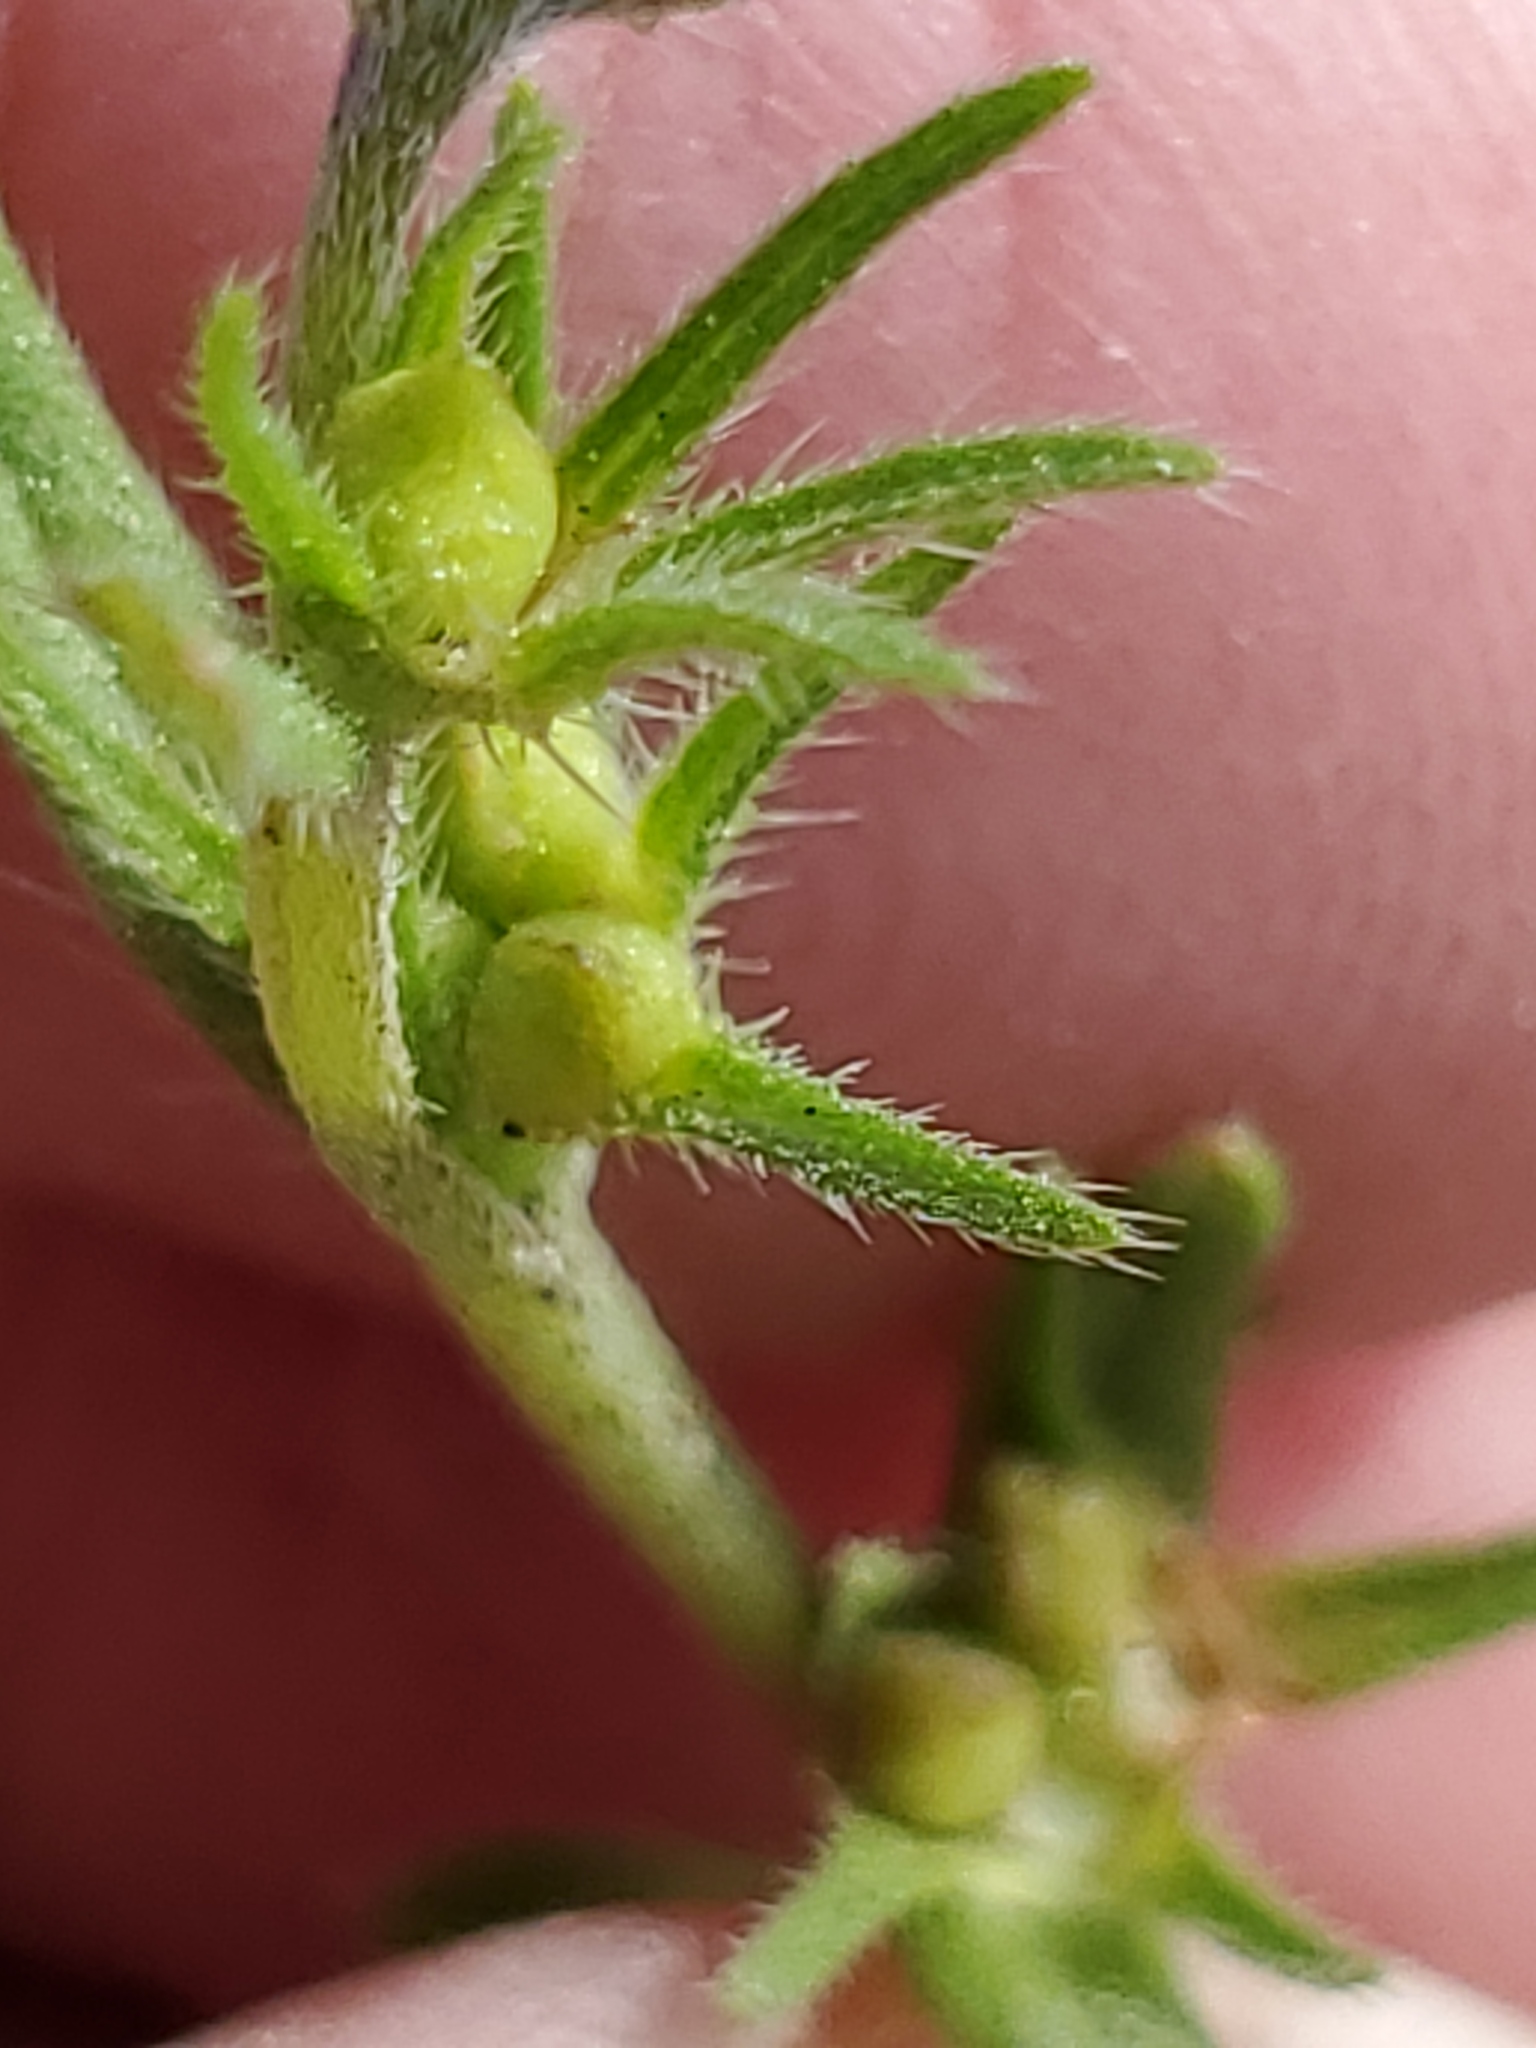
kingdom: Plantae
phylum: Tracheophyta
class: Magnoliopsida
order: Boraginales
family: Boraginaceae
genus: Buglossoides
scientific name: Buglossoides arvensis
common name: Corn gromwell
